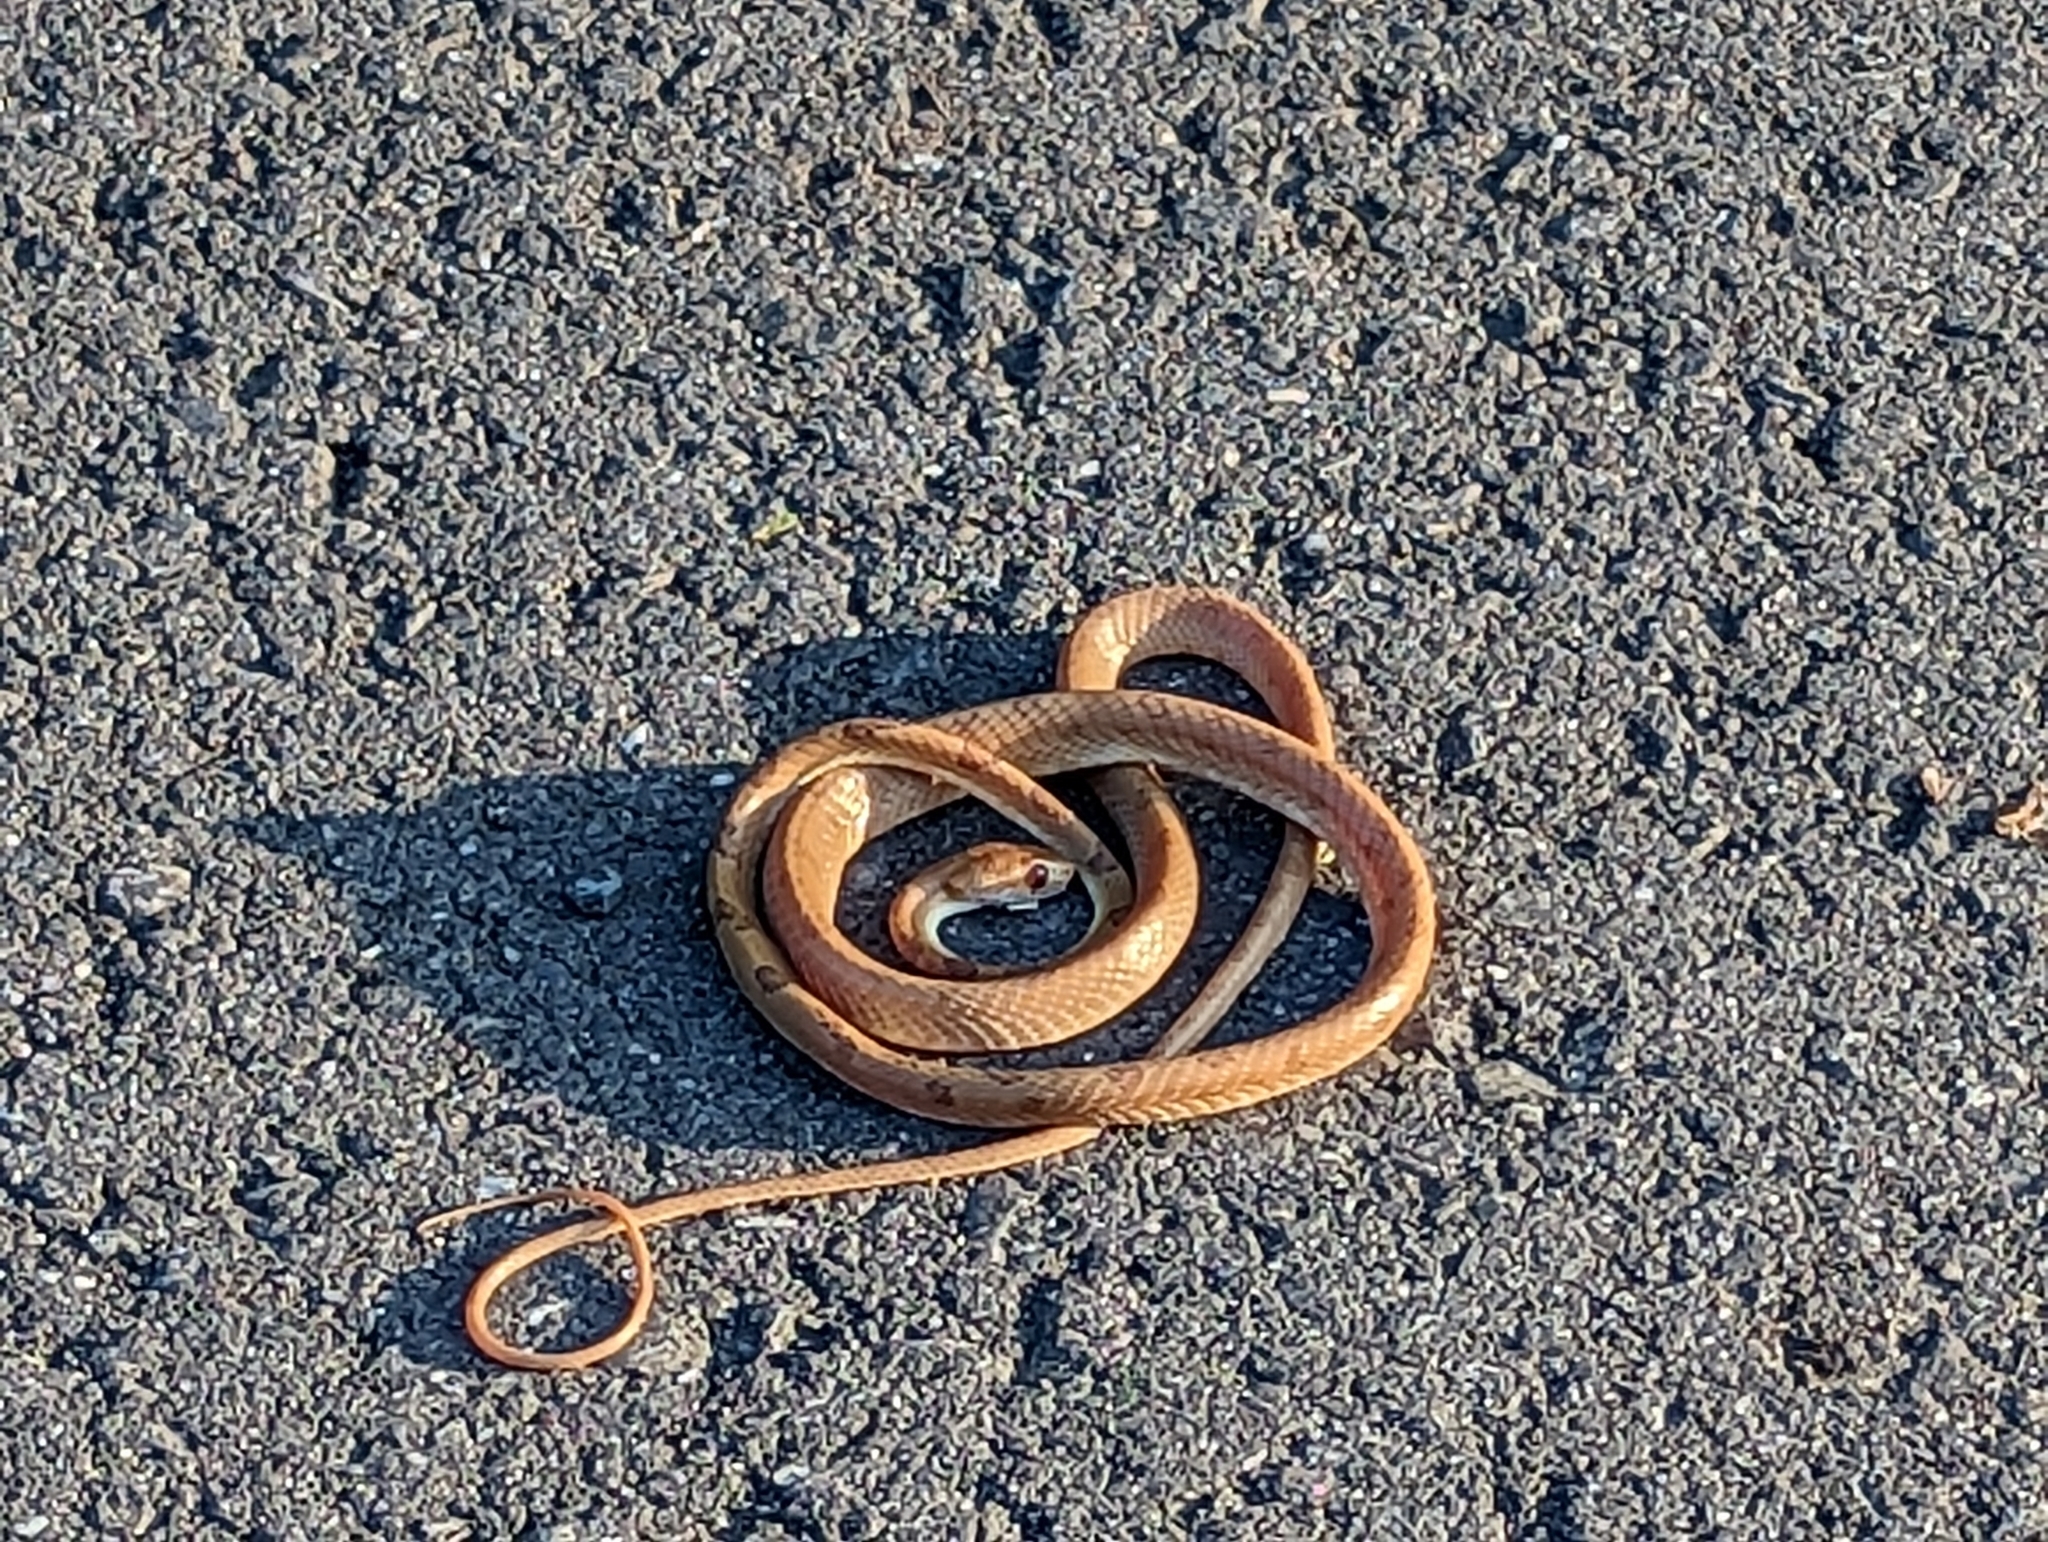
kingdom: Animalia
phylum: Chordata
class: Squamata
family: Colubridae
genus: Boiga
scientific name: Boiga kraepelini
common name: Kelung cat snake
